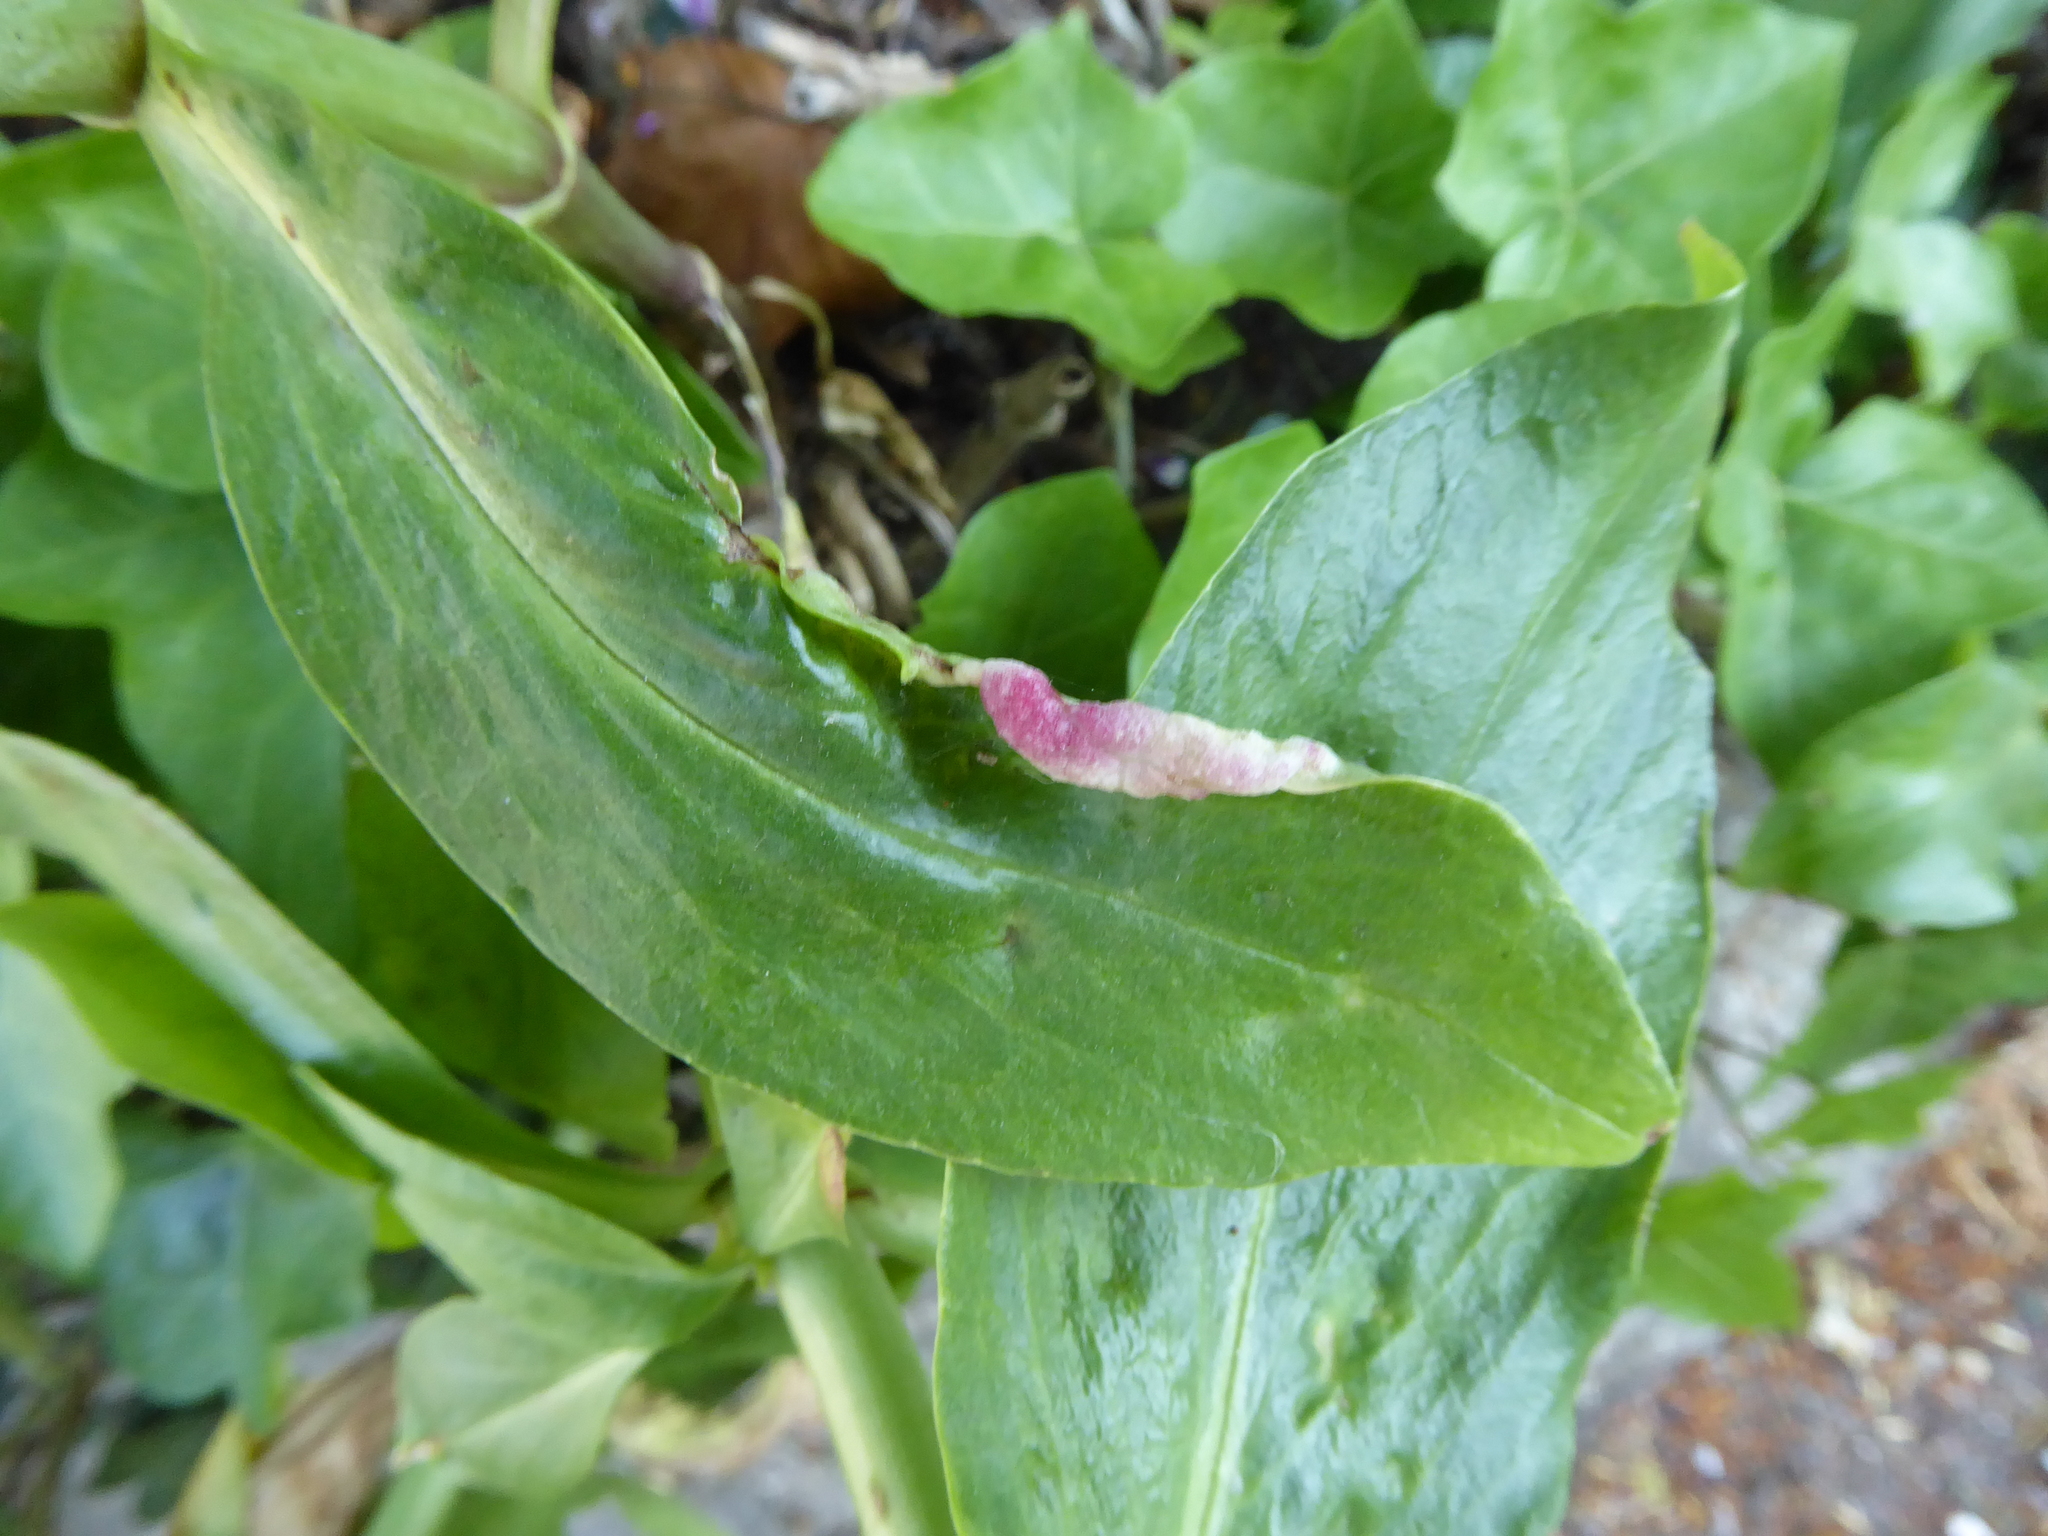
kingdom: Animalia
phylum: Arthropoda
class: Insecta
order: Hemiptera
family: Triozidae
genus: Trioza
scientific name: Trioza centranthi
